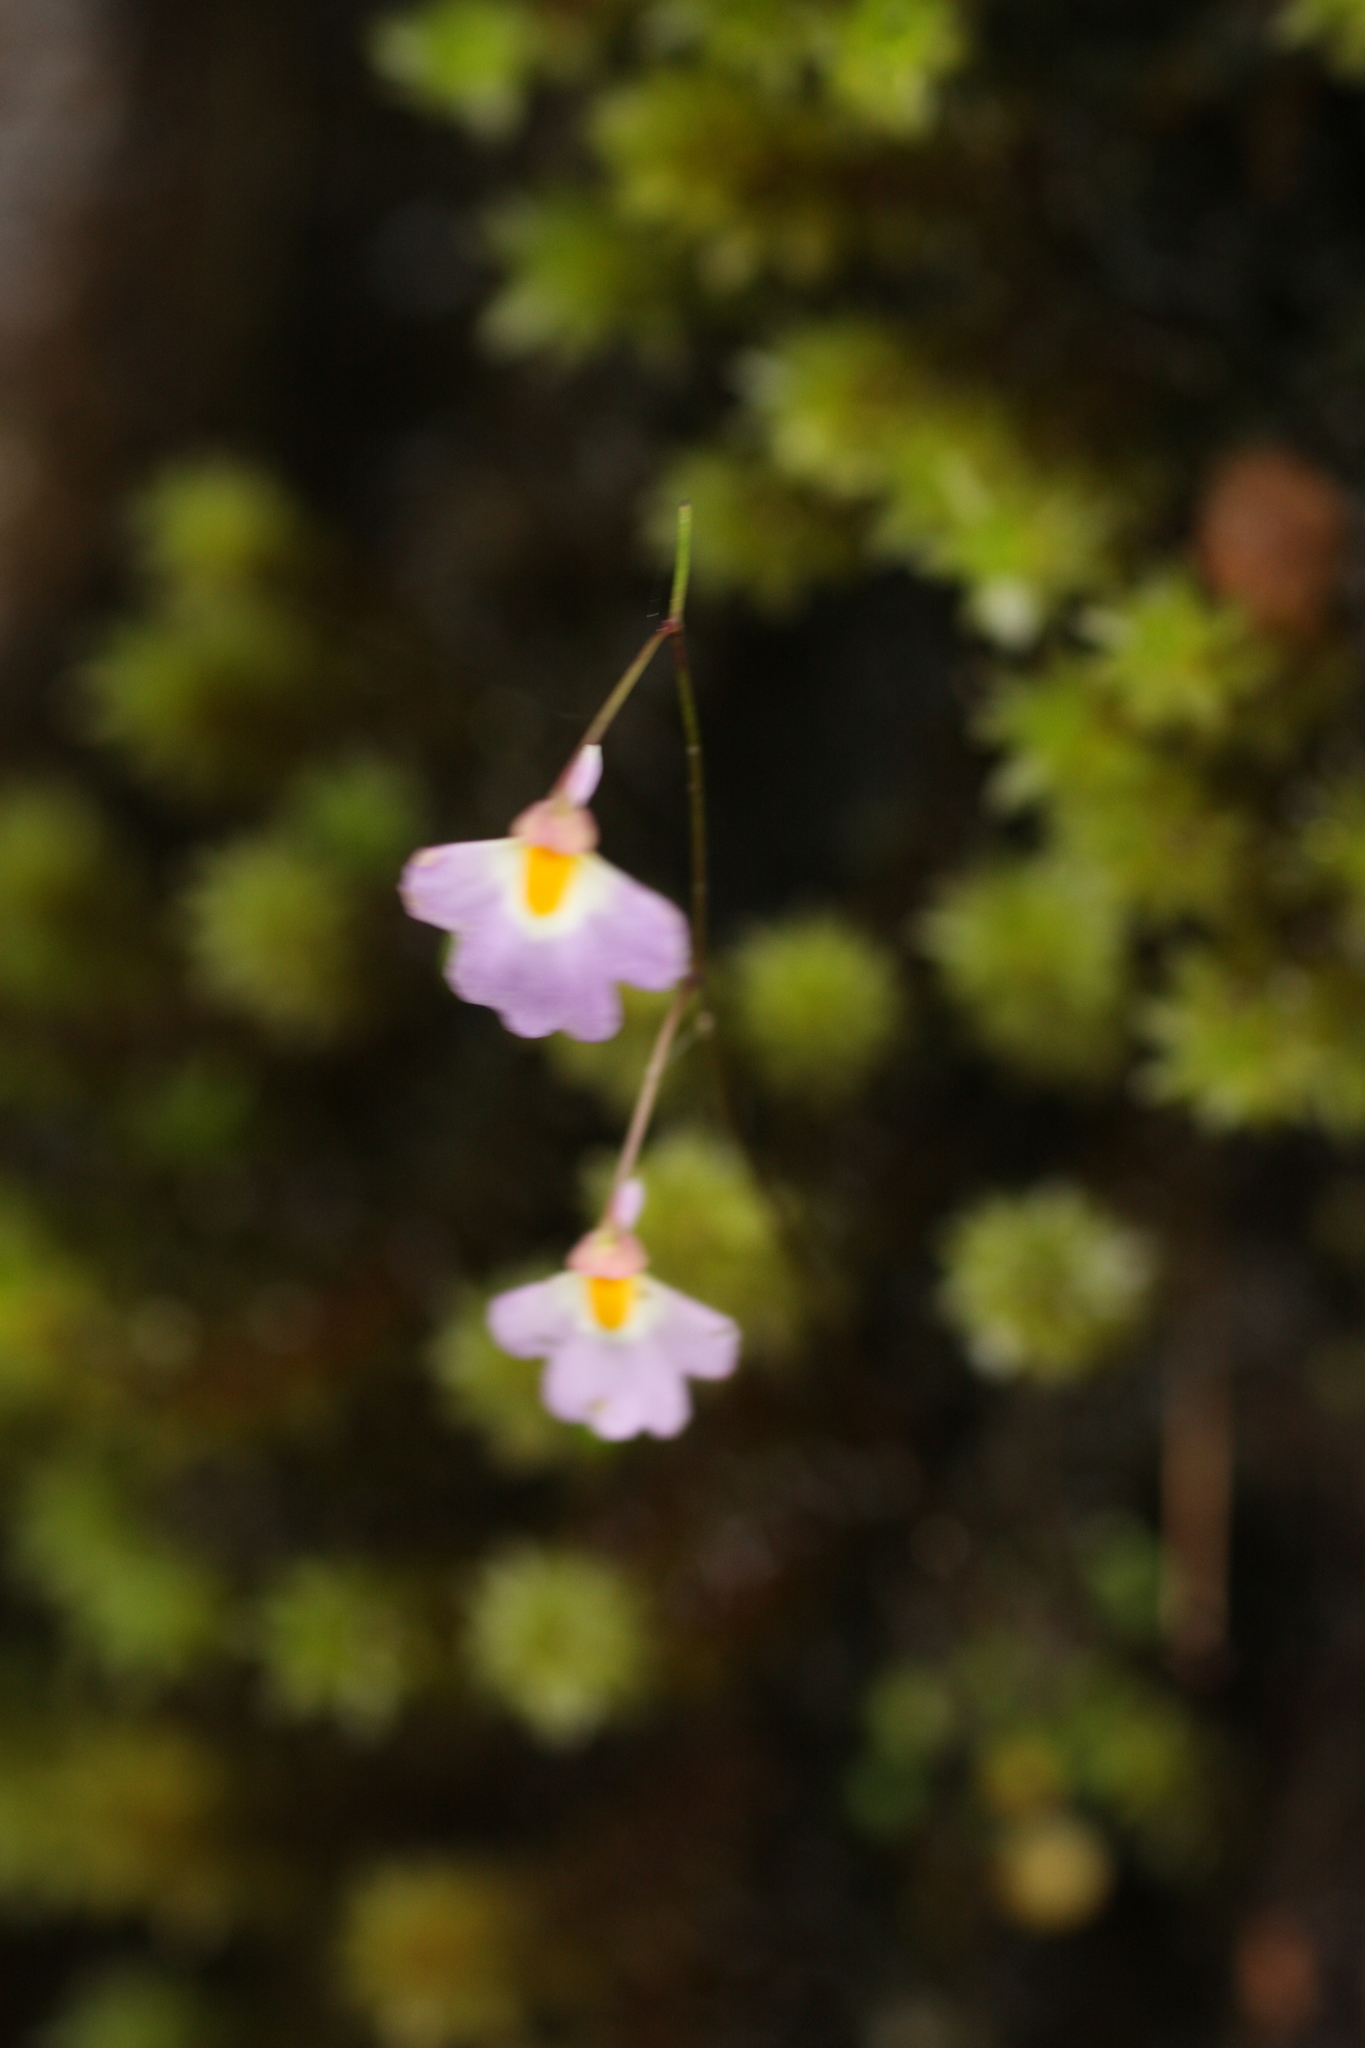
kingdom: Plantae
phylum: Tracheophyta
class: Magnoliopsida
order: Lamiales
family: Lentibulariaceae
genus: Utricularia
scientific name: Utricularia striatula
